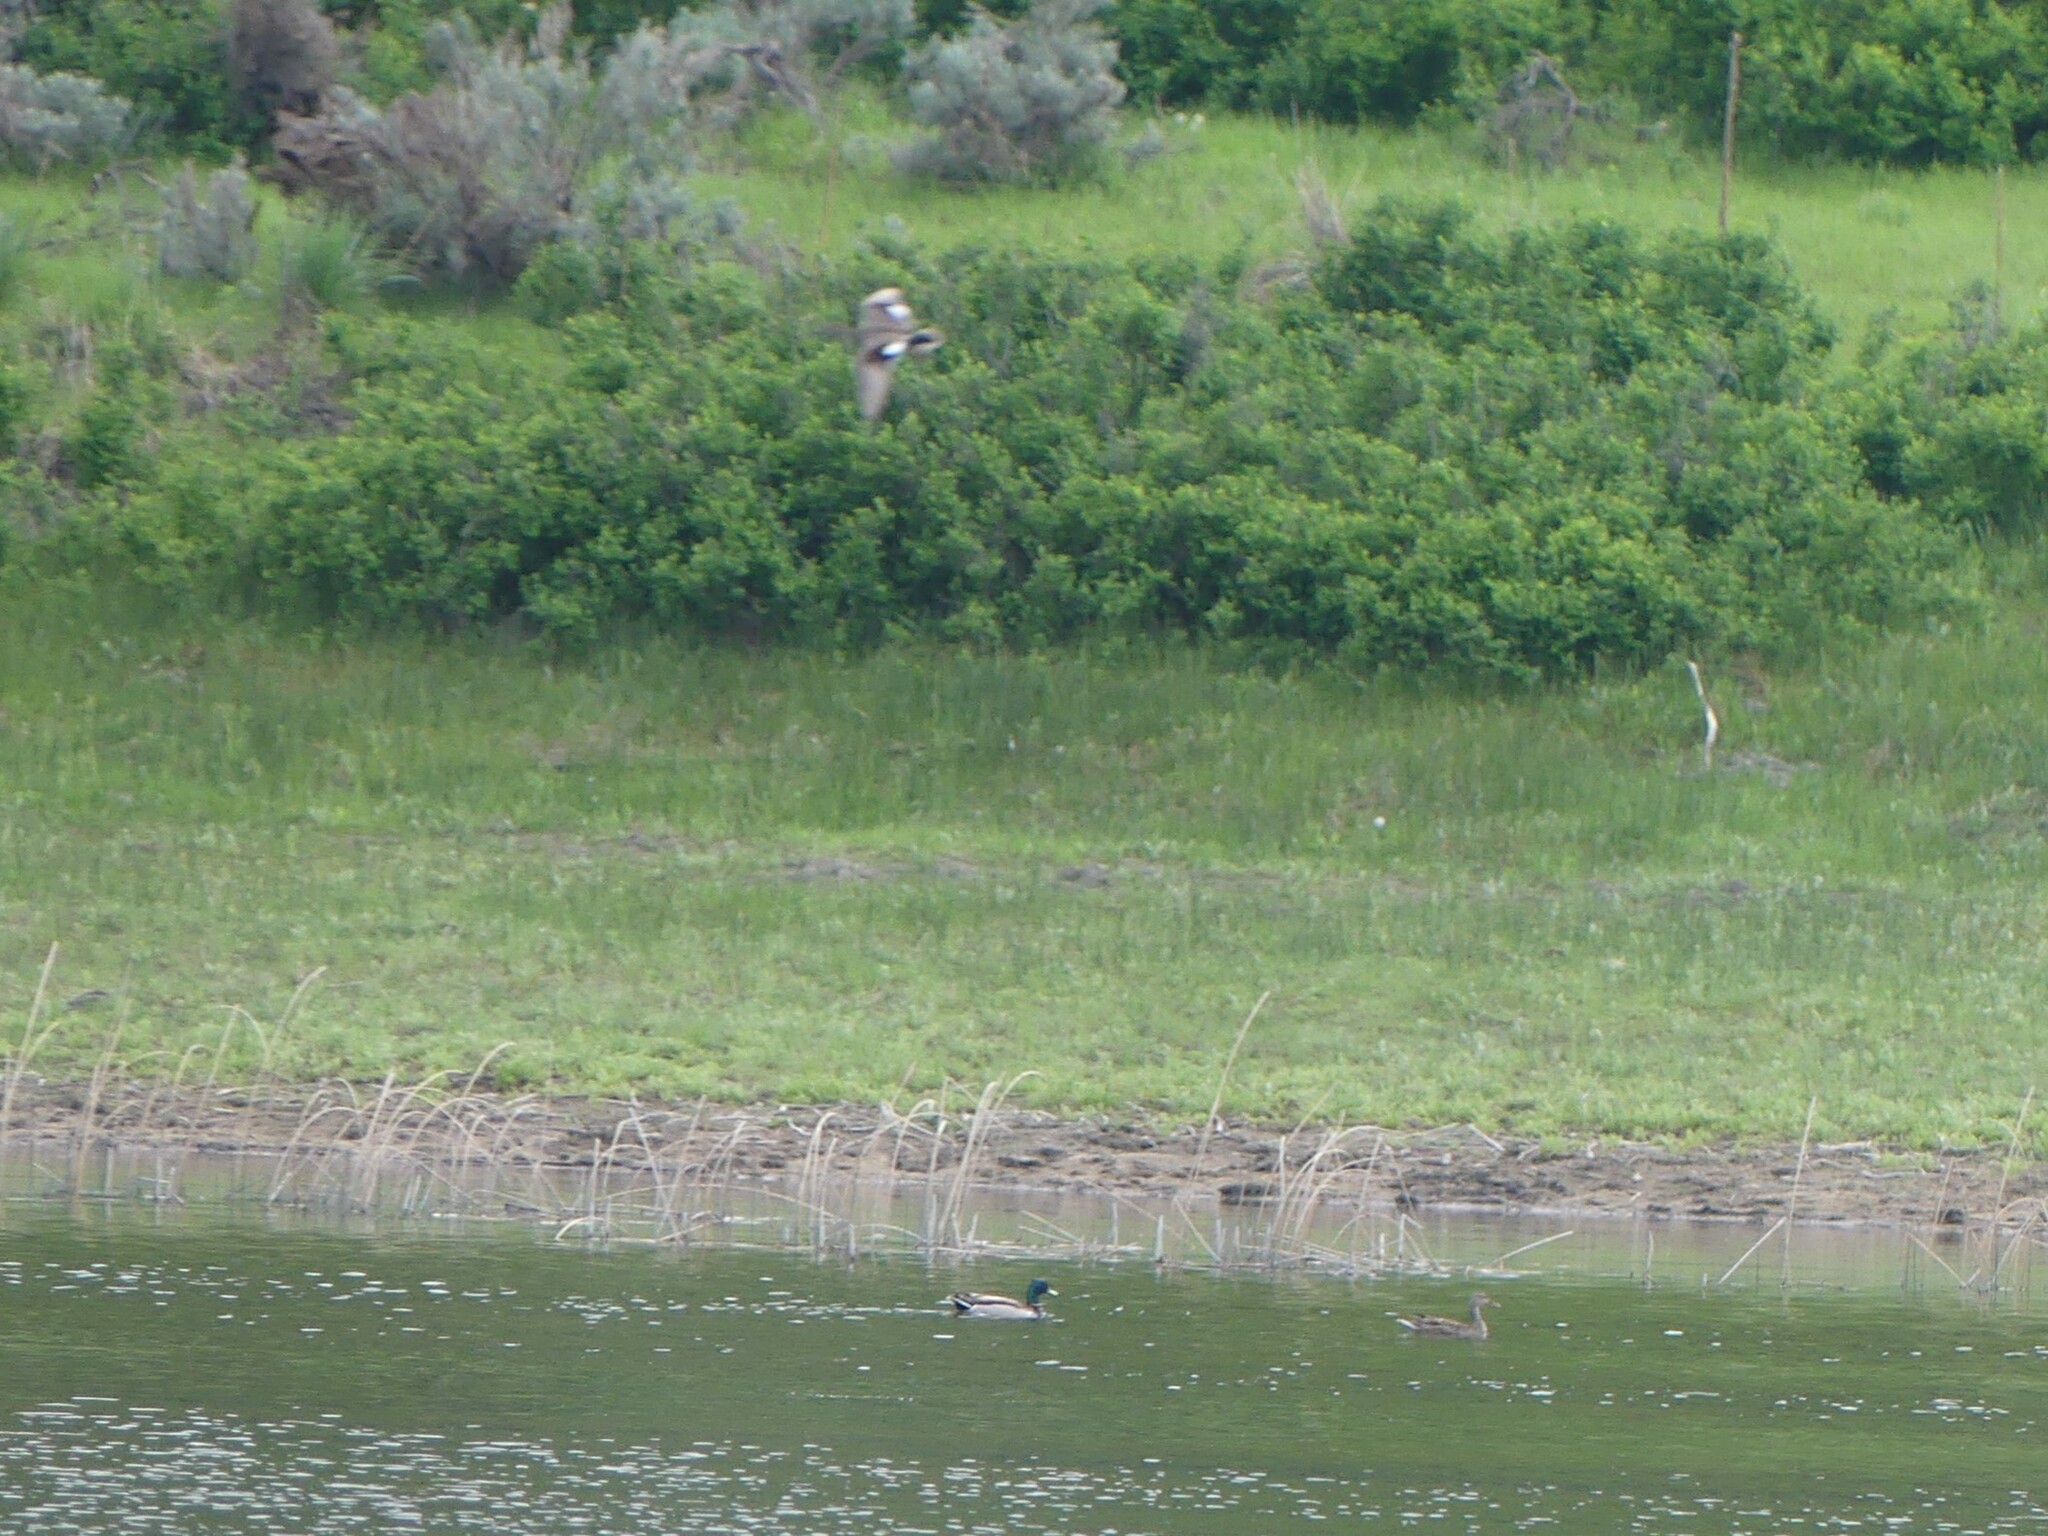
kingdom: Animalia
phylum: Chordata
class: Aves
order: Anseriformes
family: Anatidae
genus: Anas
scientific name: Anas platyrhynchos
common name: Mallard
